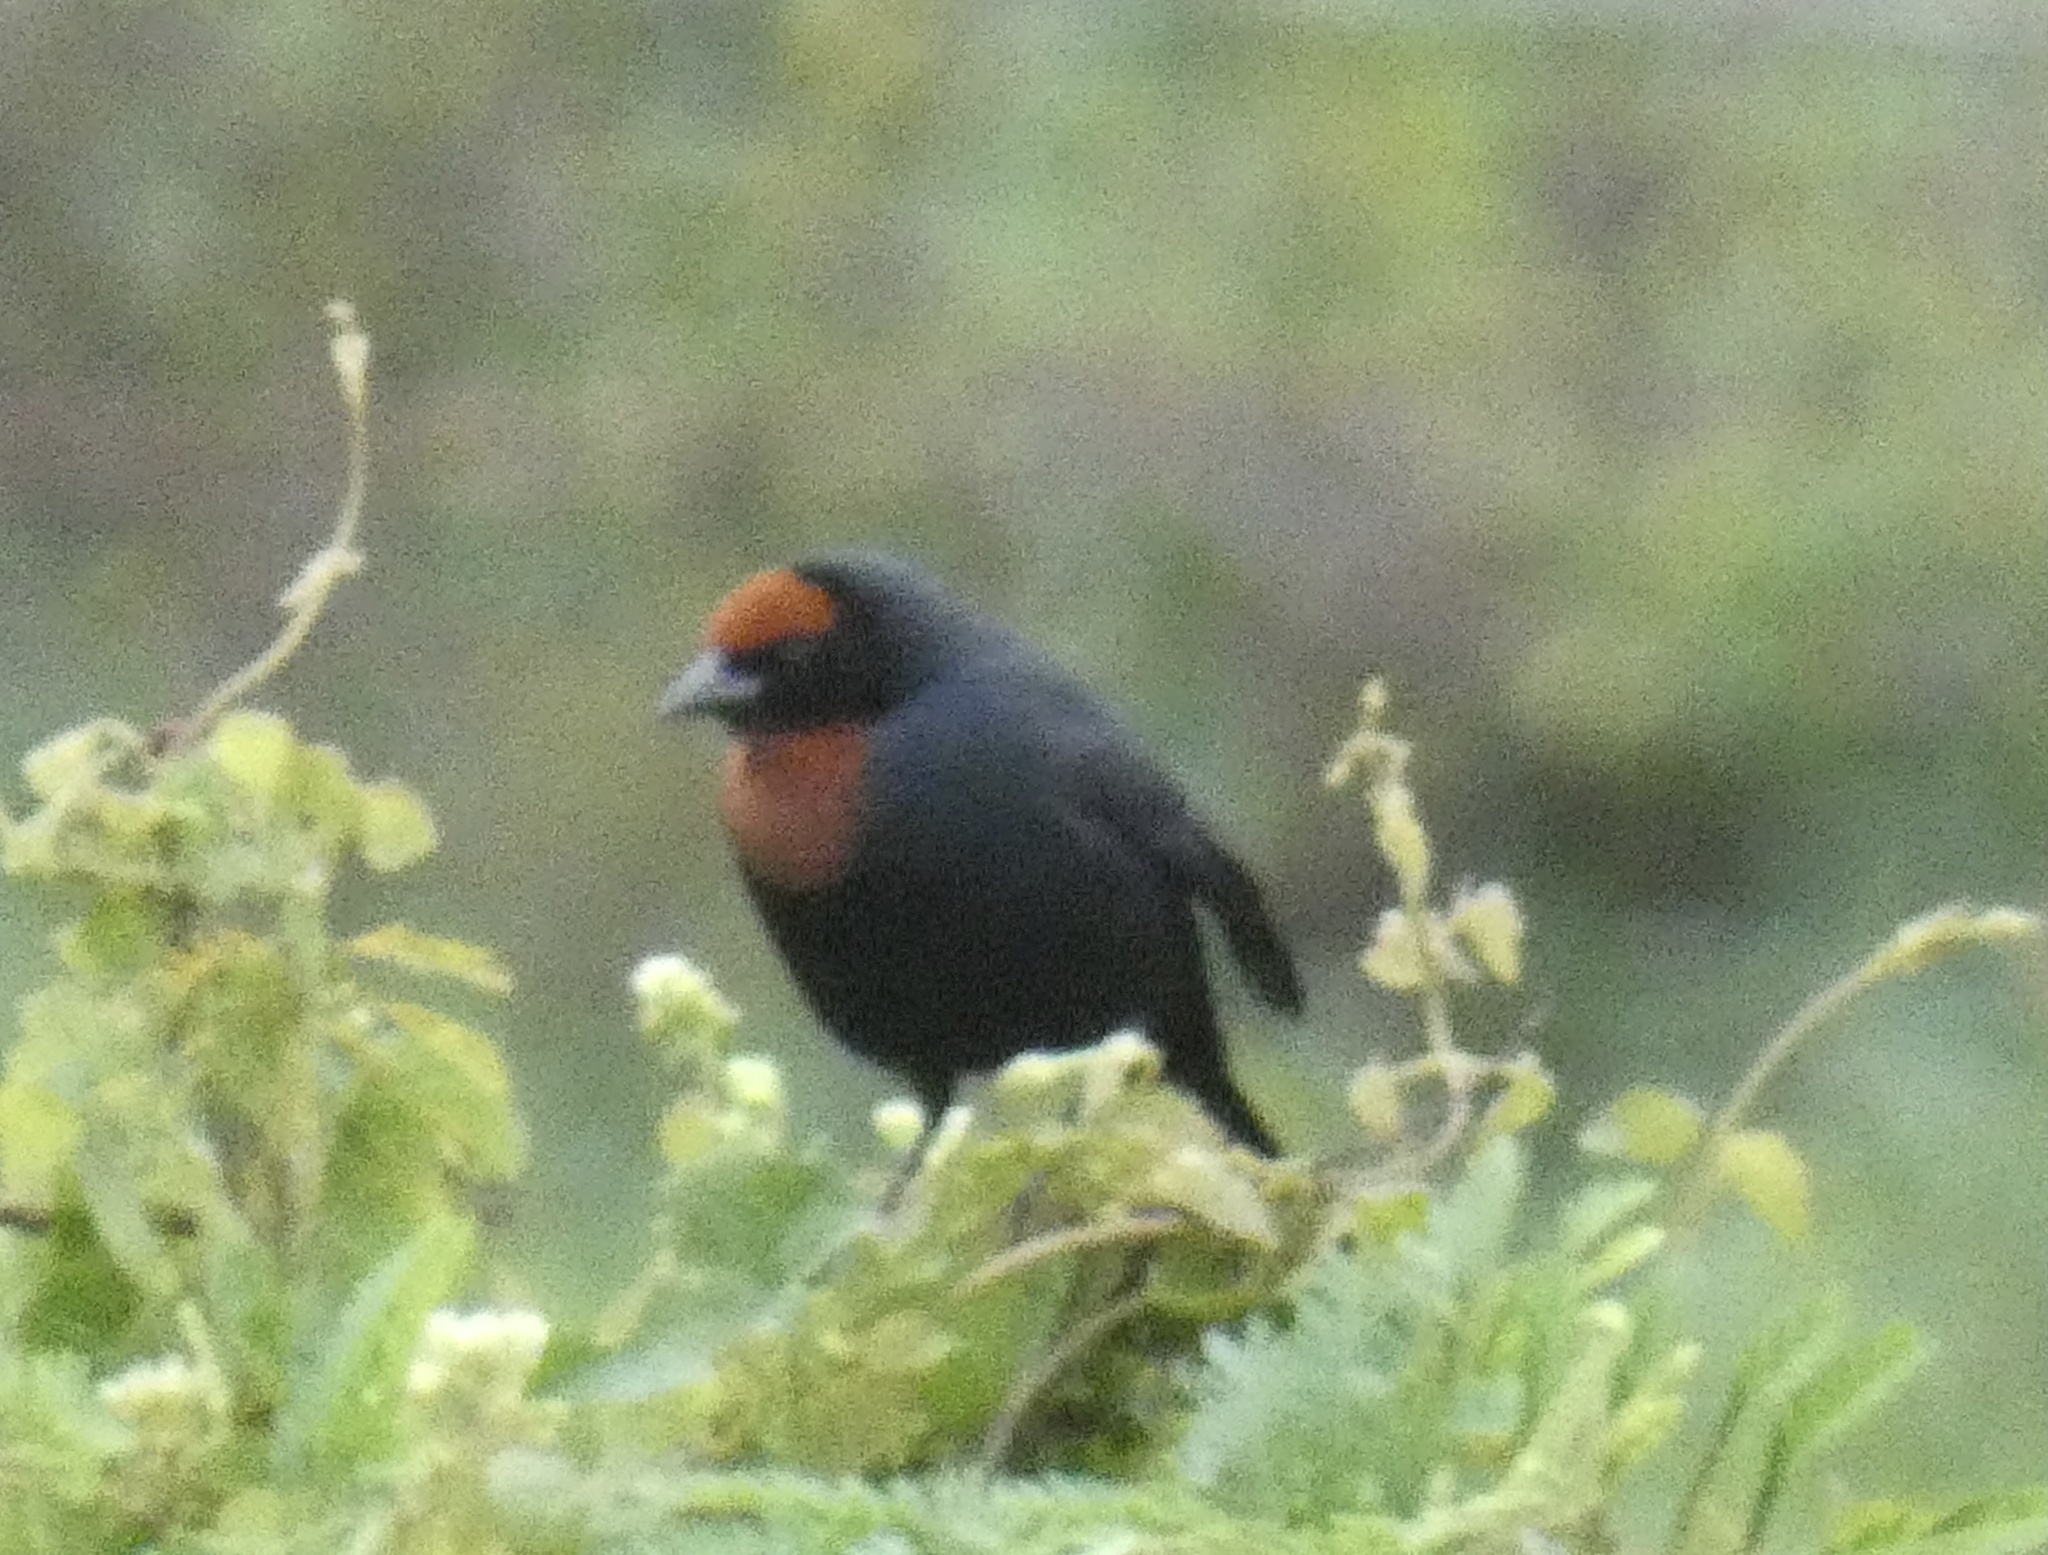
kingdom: Animalia
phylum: Chordata
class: Aves
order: Passeriformes
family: Icteridae
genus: Chrysomus
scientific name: Chrysomus ruficapillus
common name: Chestnut-capped blackbird
